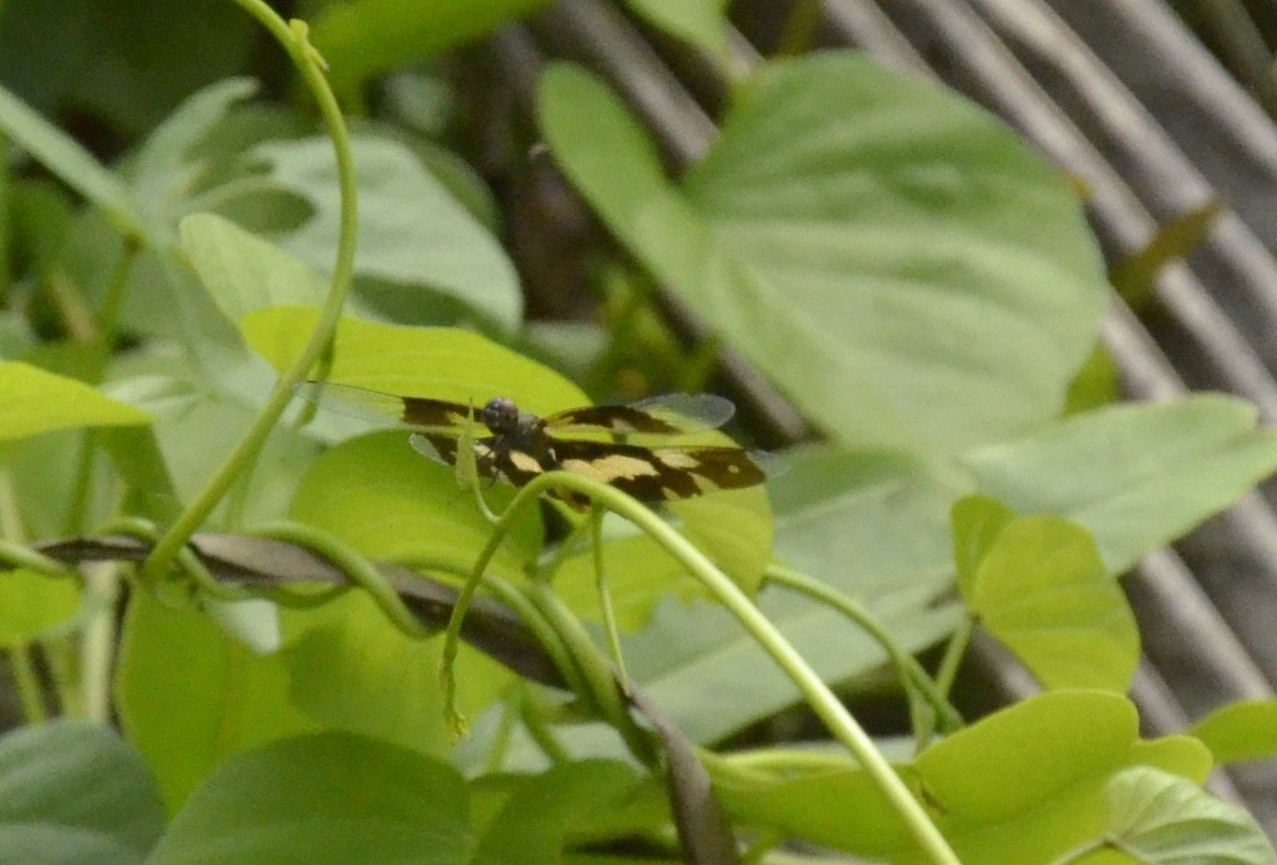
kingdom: Animalia
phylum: Arthropoda
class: Insecta
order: Odonata
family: Libellulidae
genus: Rhyothemis
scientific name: Rhyothemis variegata
